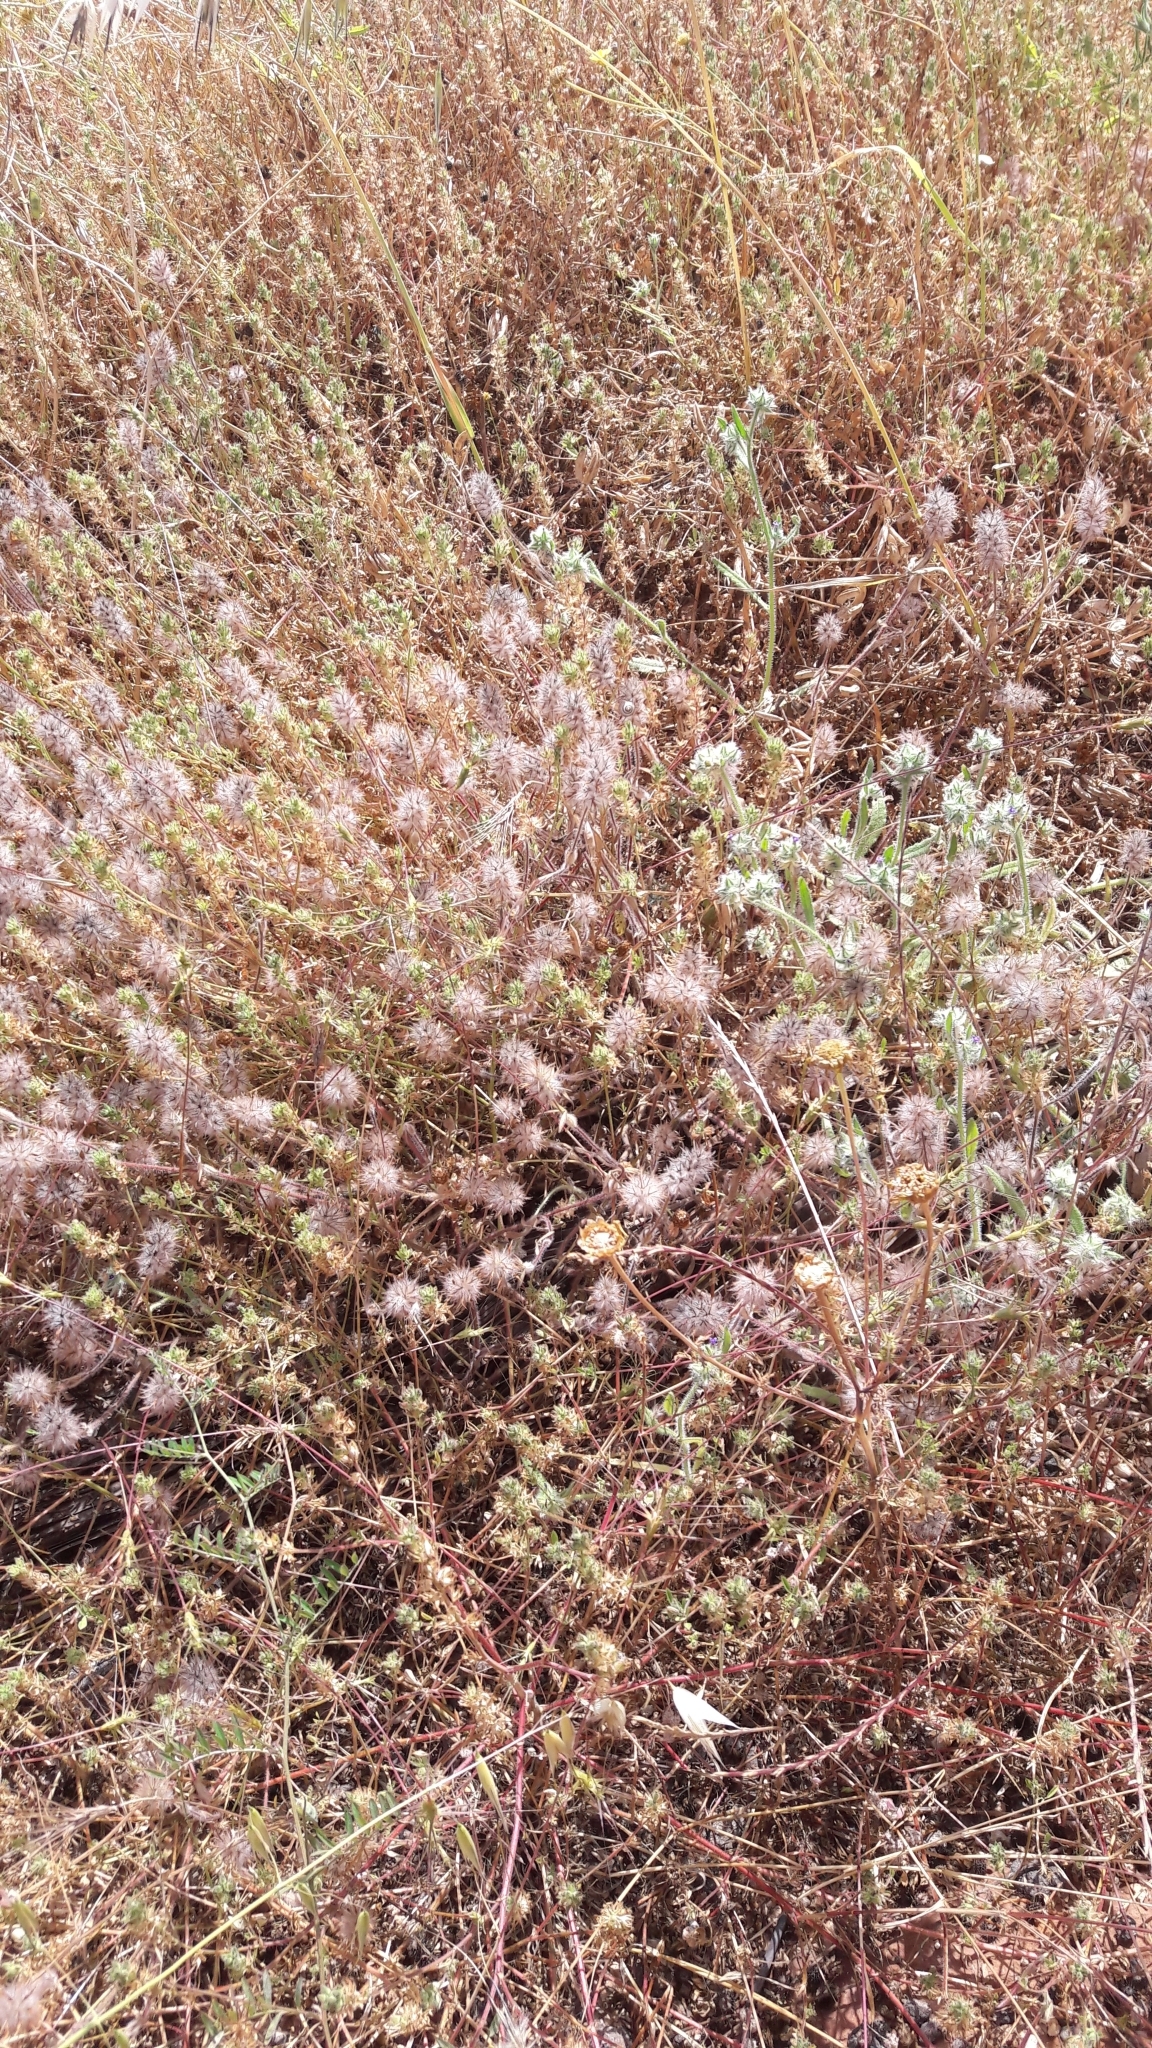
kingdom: Plantae
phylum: Tracheophyta
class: Magnoliopsida
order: Fabales
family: Fabaceae
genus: Trifolium
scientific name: Trifolium stellatum
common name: Starry clover
